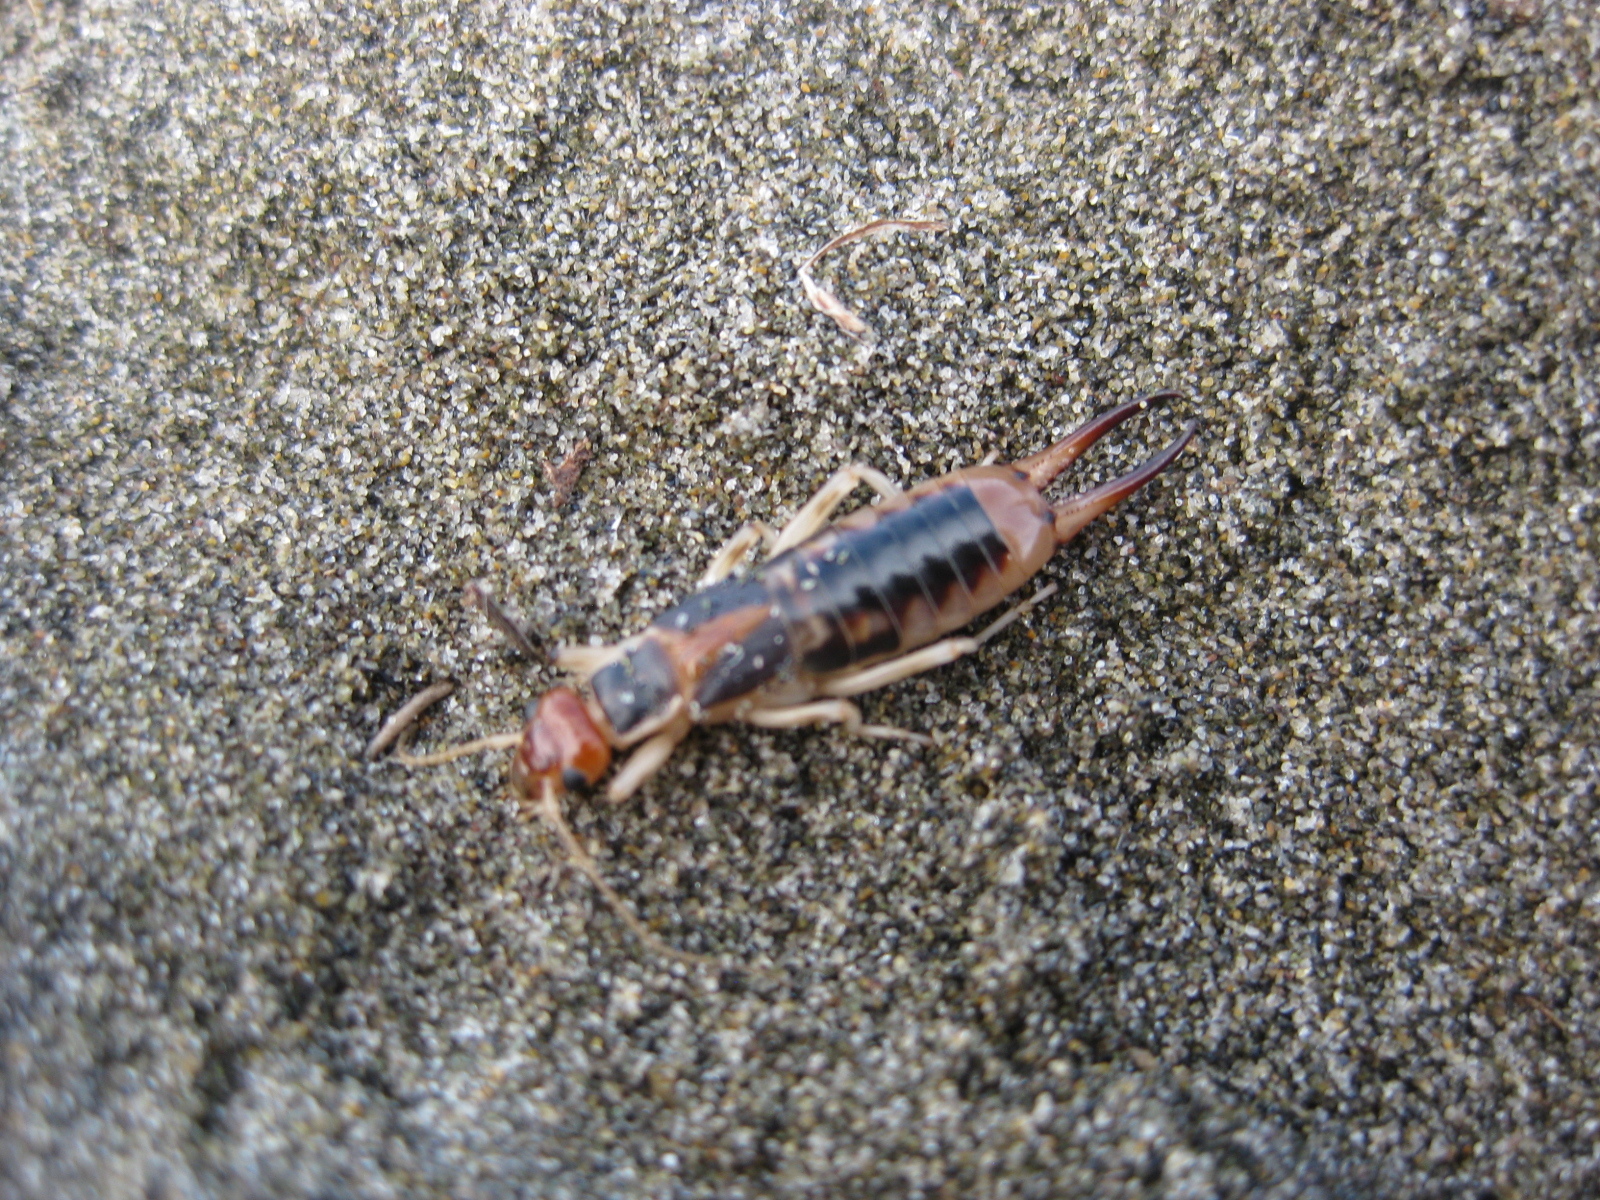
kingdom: Animalia
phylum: Arthropoda
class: Insecta
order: Dermaptera
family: Labiduridae
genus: Labidura
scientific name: Labidura riparia
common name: Striped earwig
